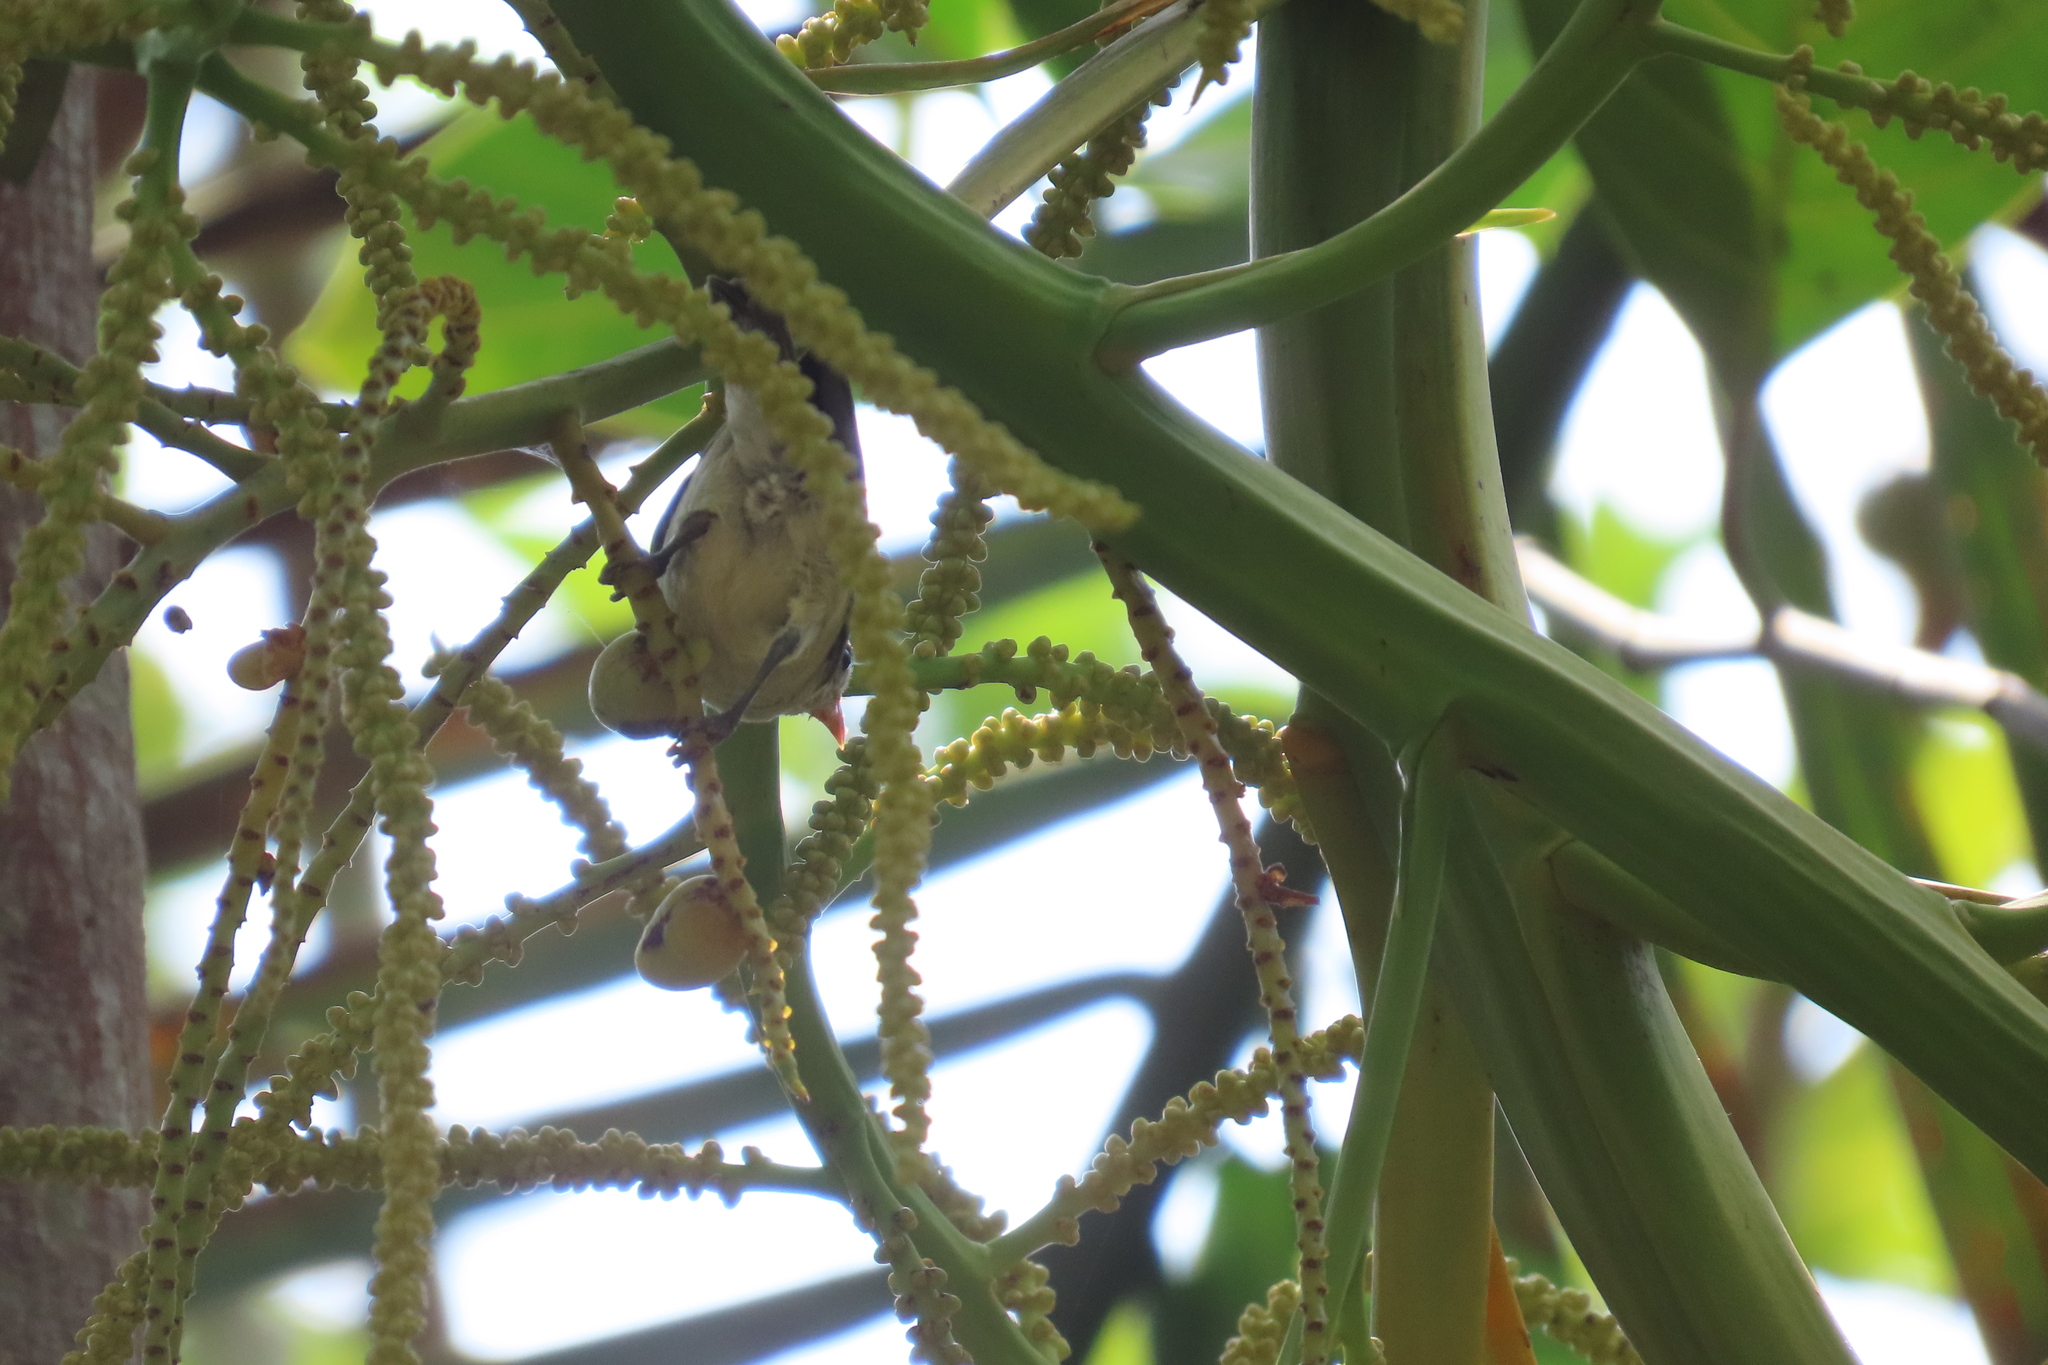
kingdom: Animalia
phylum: Chordata
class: Aves
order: Passeriformes
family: Dicaeidae
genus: Dicaeum
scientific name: Dicaeum erythrorhynchos
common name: Pale-billed flowerpecker
